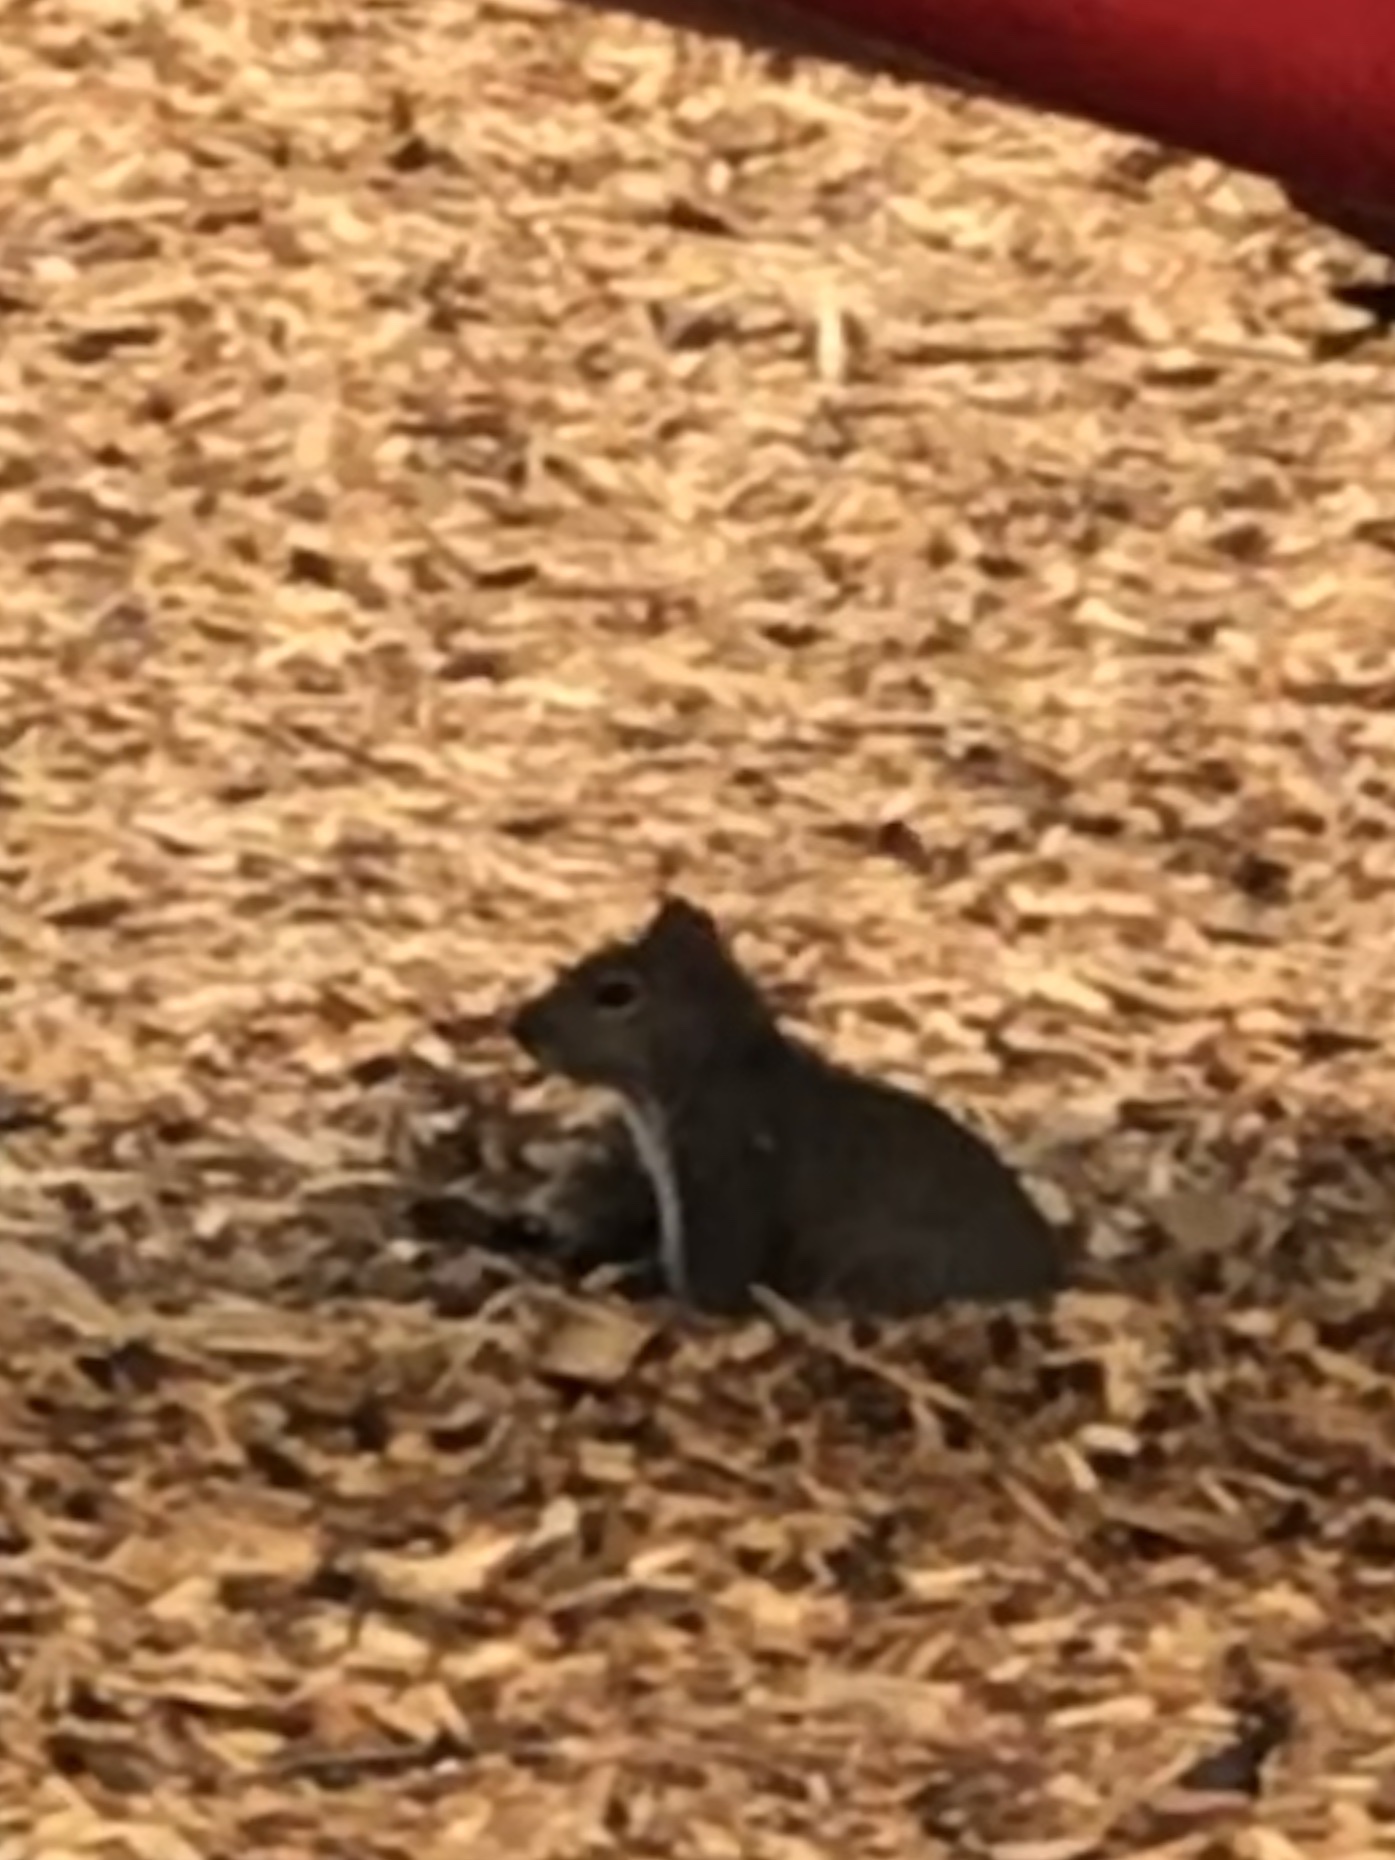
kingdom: Animalia
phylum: Chordata
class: Mammalia
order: Rodentia
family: Sciuridae
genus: Sciurus
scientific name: Sciurus carolinensis
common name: Eastern gray squirrel
